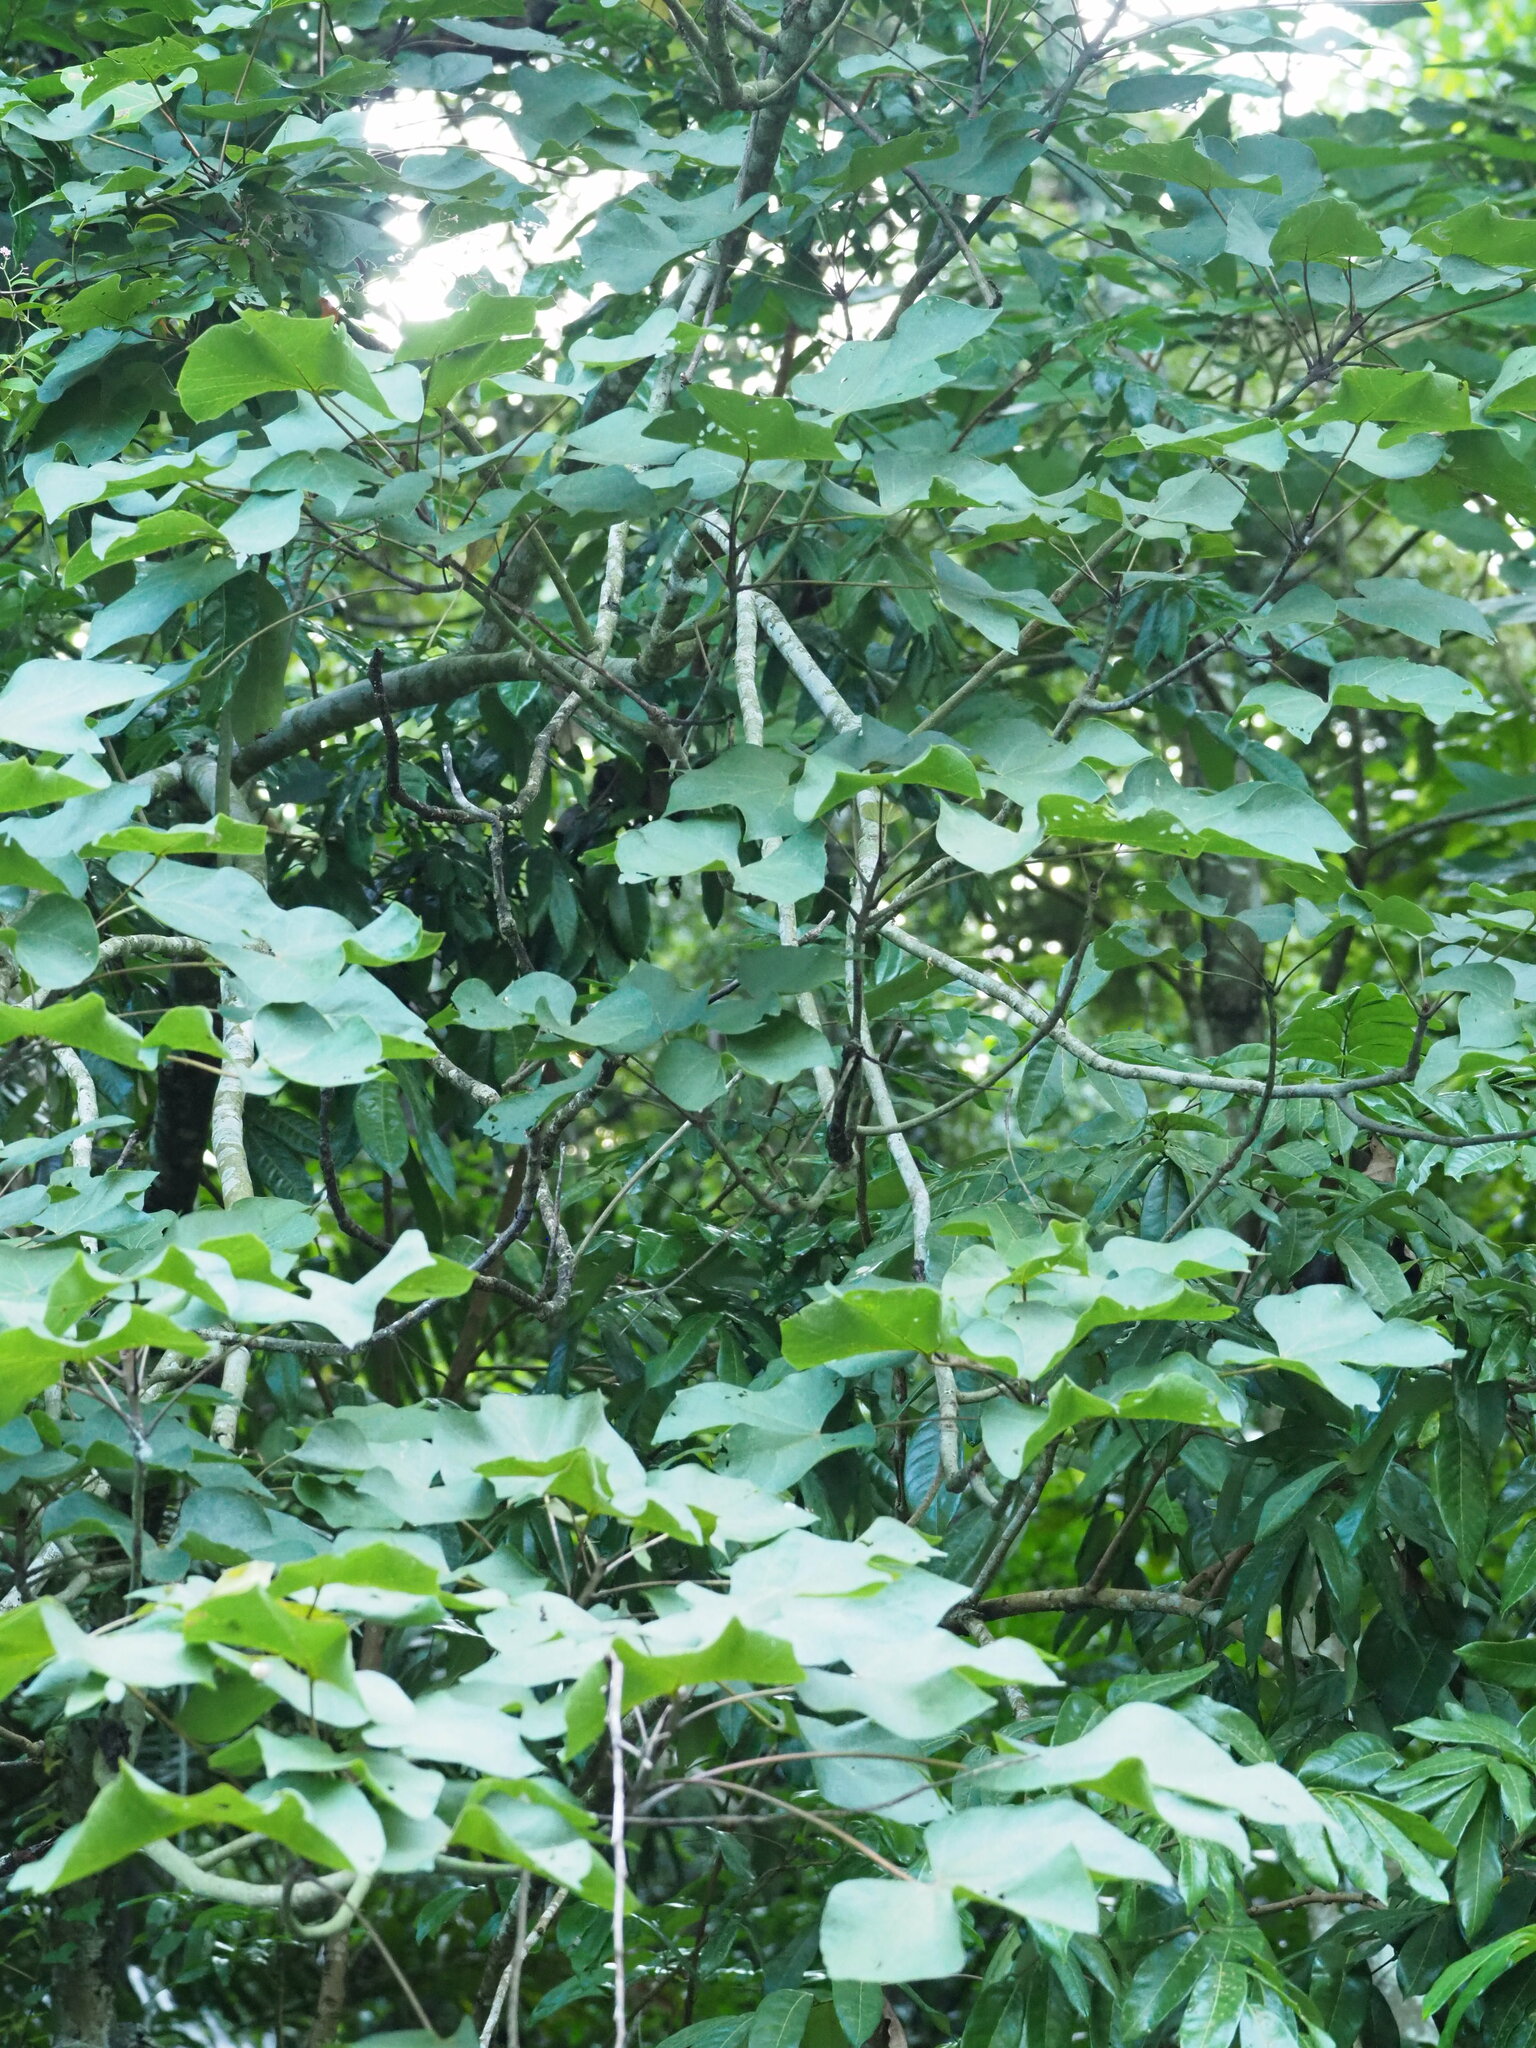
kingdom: Plantae
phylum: Tracheophyta
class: Magnoliopsida
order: Malvales
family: Malvaceae
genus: Firmiana
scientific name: Firmiana simplex
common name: Chinese parasoltree
